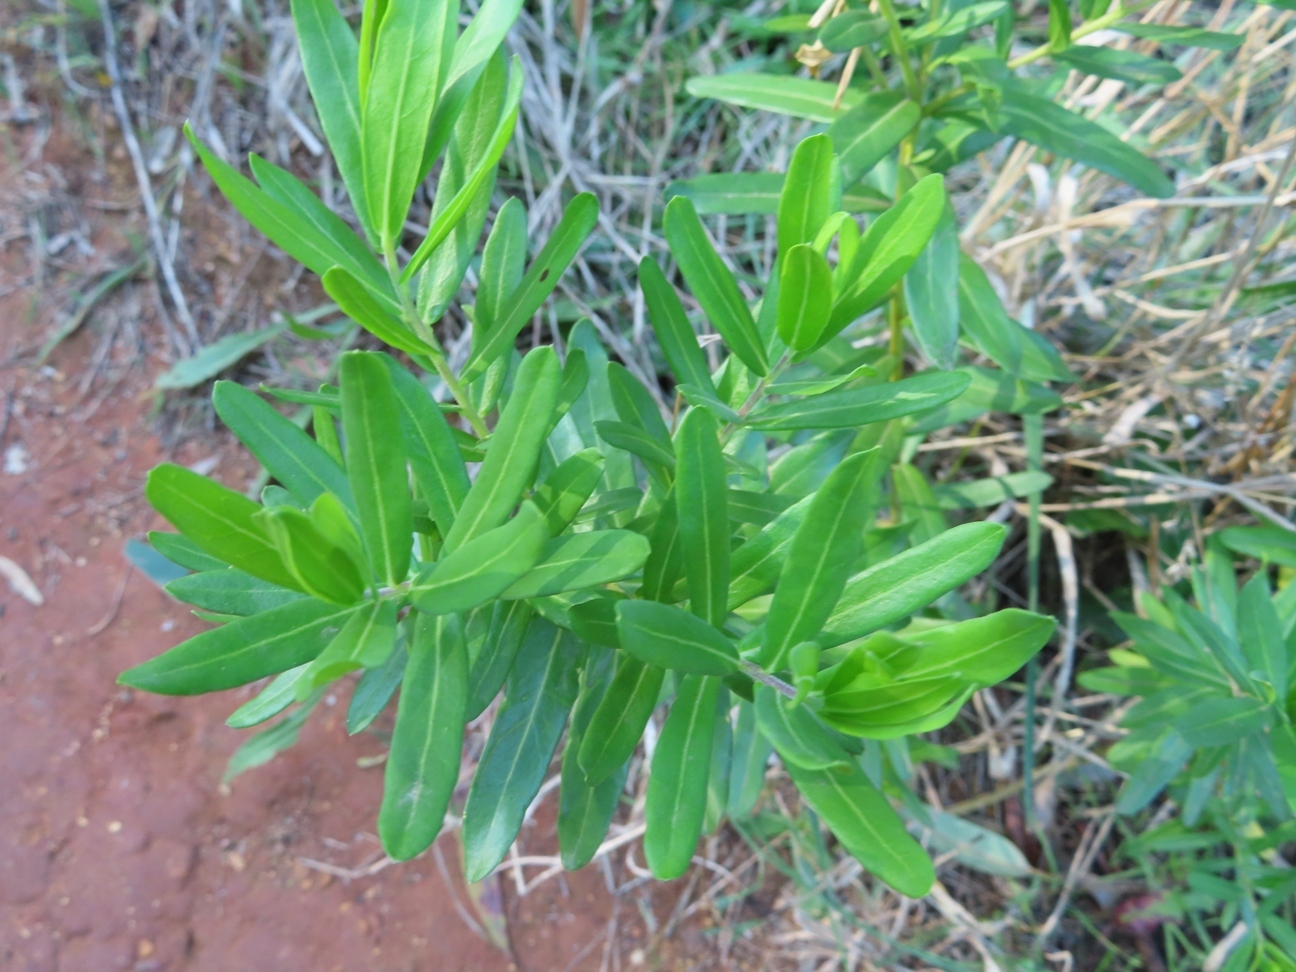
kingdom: Plantae
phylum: Tracheophyta
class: Magnoliopsida
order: Fabales
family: Polygalaceae
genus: Polygala
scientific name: Polygala myrtifolia
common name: Myrtle-leaf milkwort
